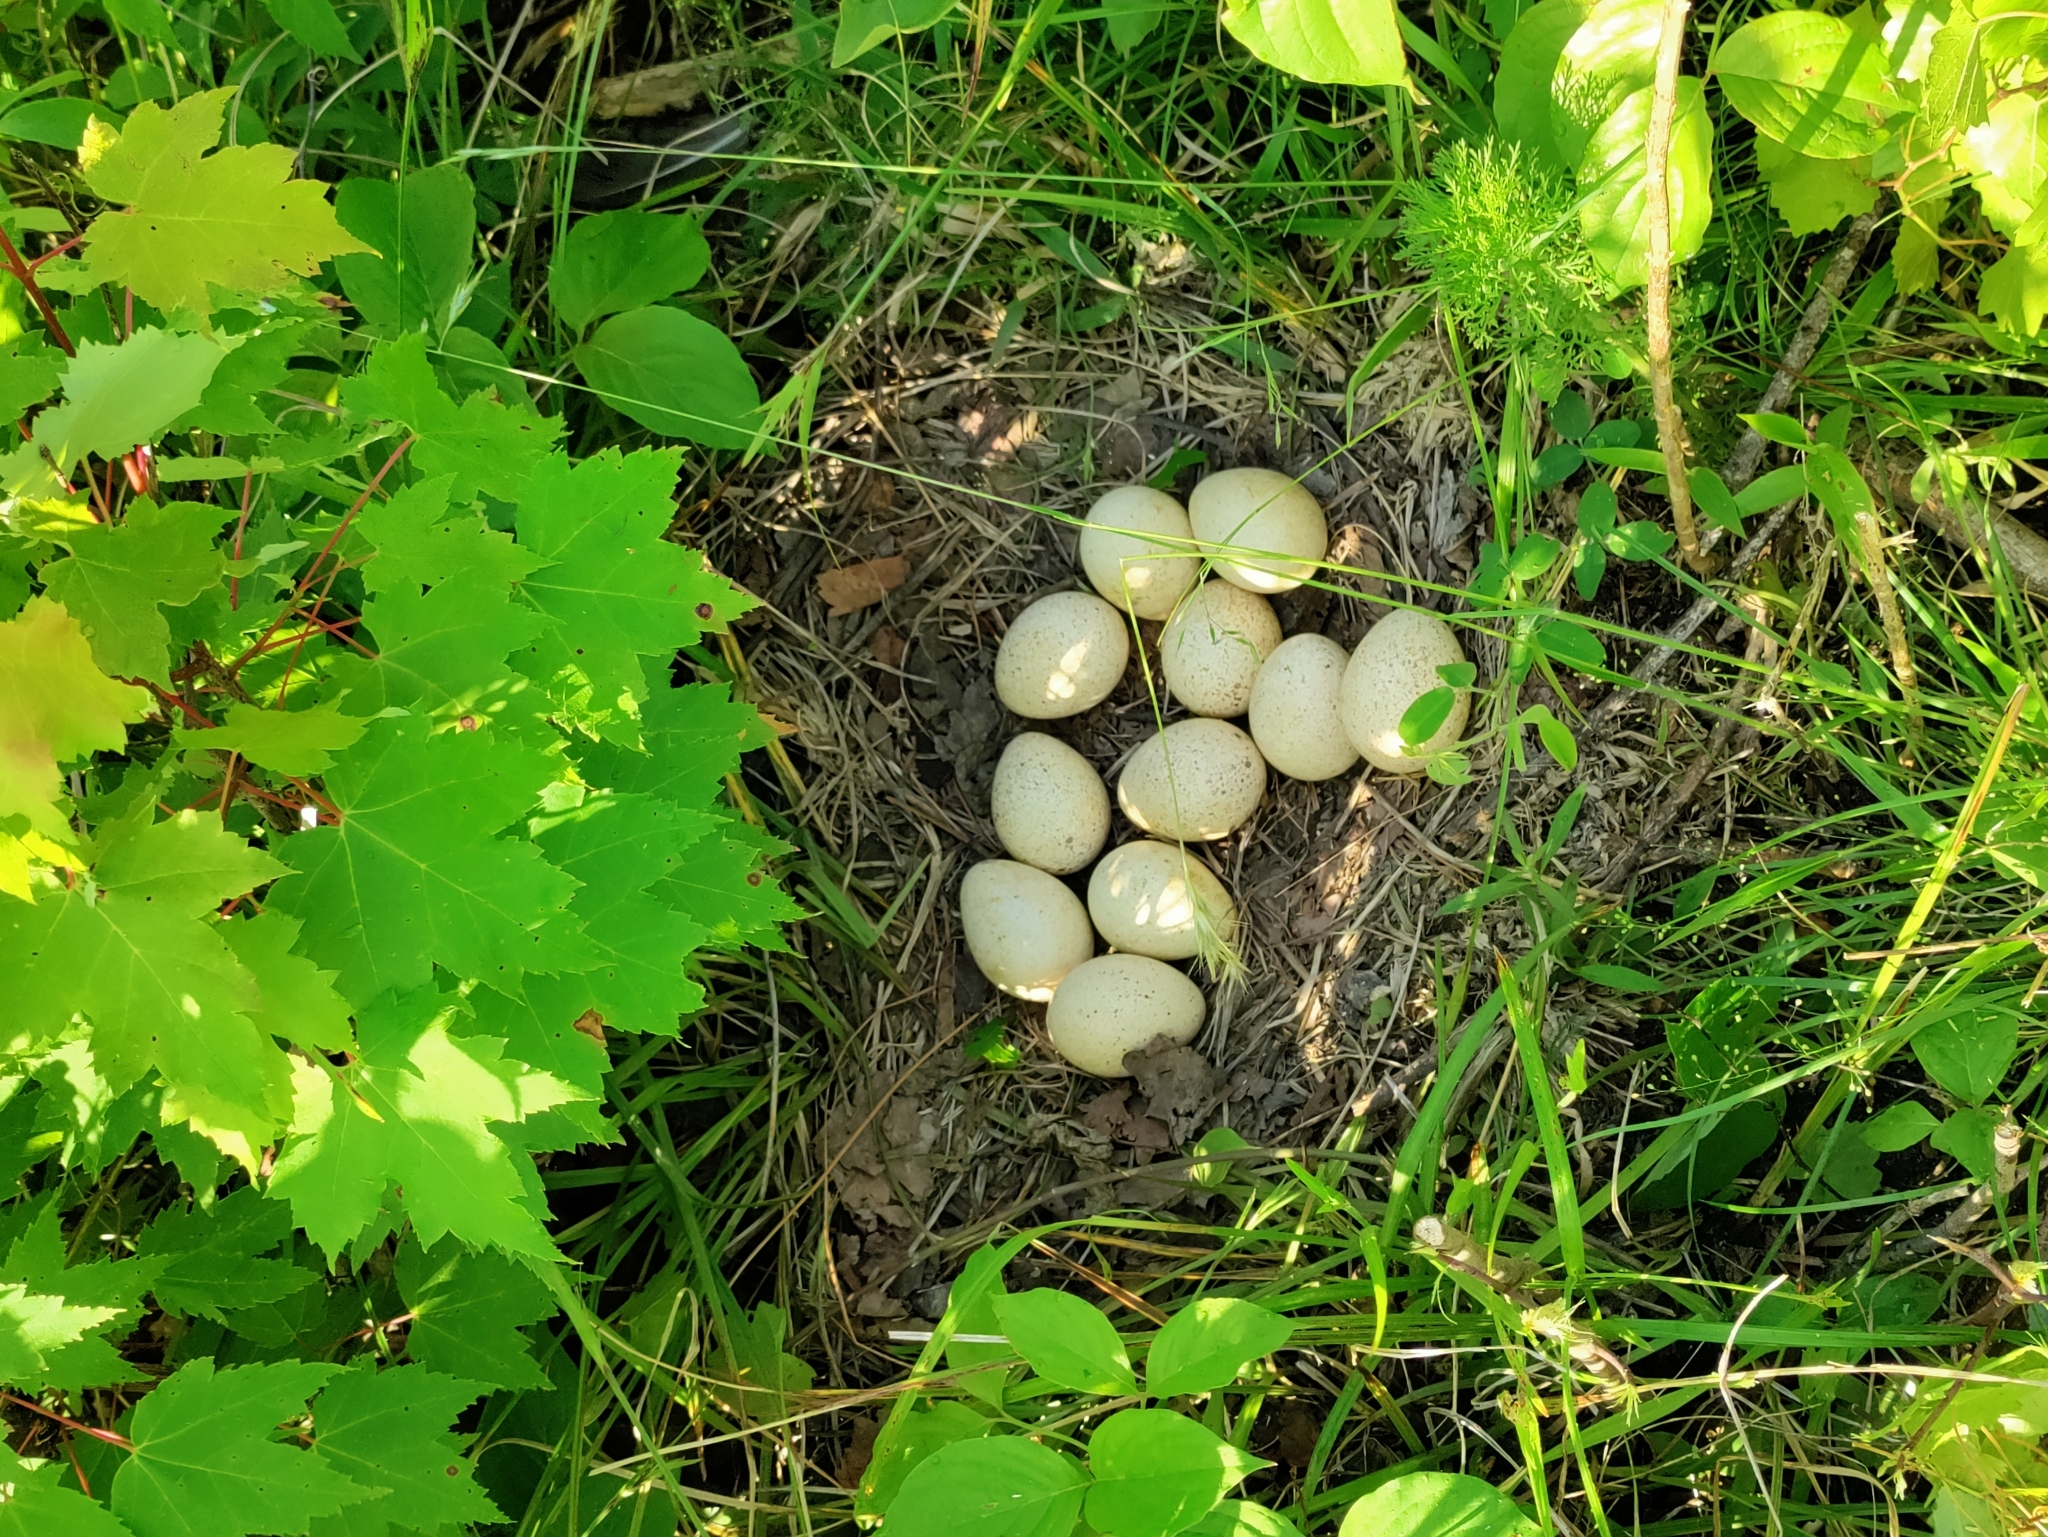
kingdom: Animalia
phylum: Chordata
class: Aves
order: Galliformes
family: Phasianidae
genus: Meleagris
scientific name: Meleagris gallopavo
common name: Wild turkey
